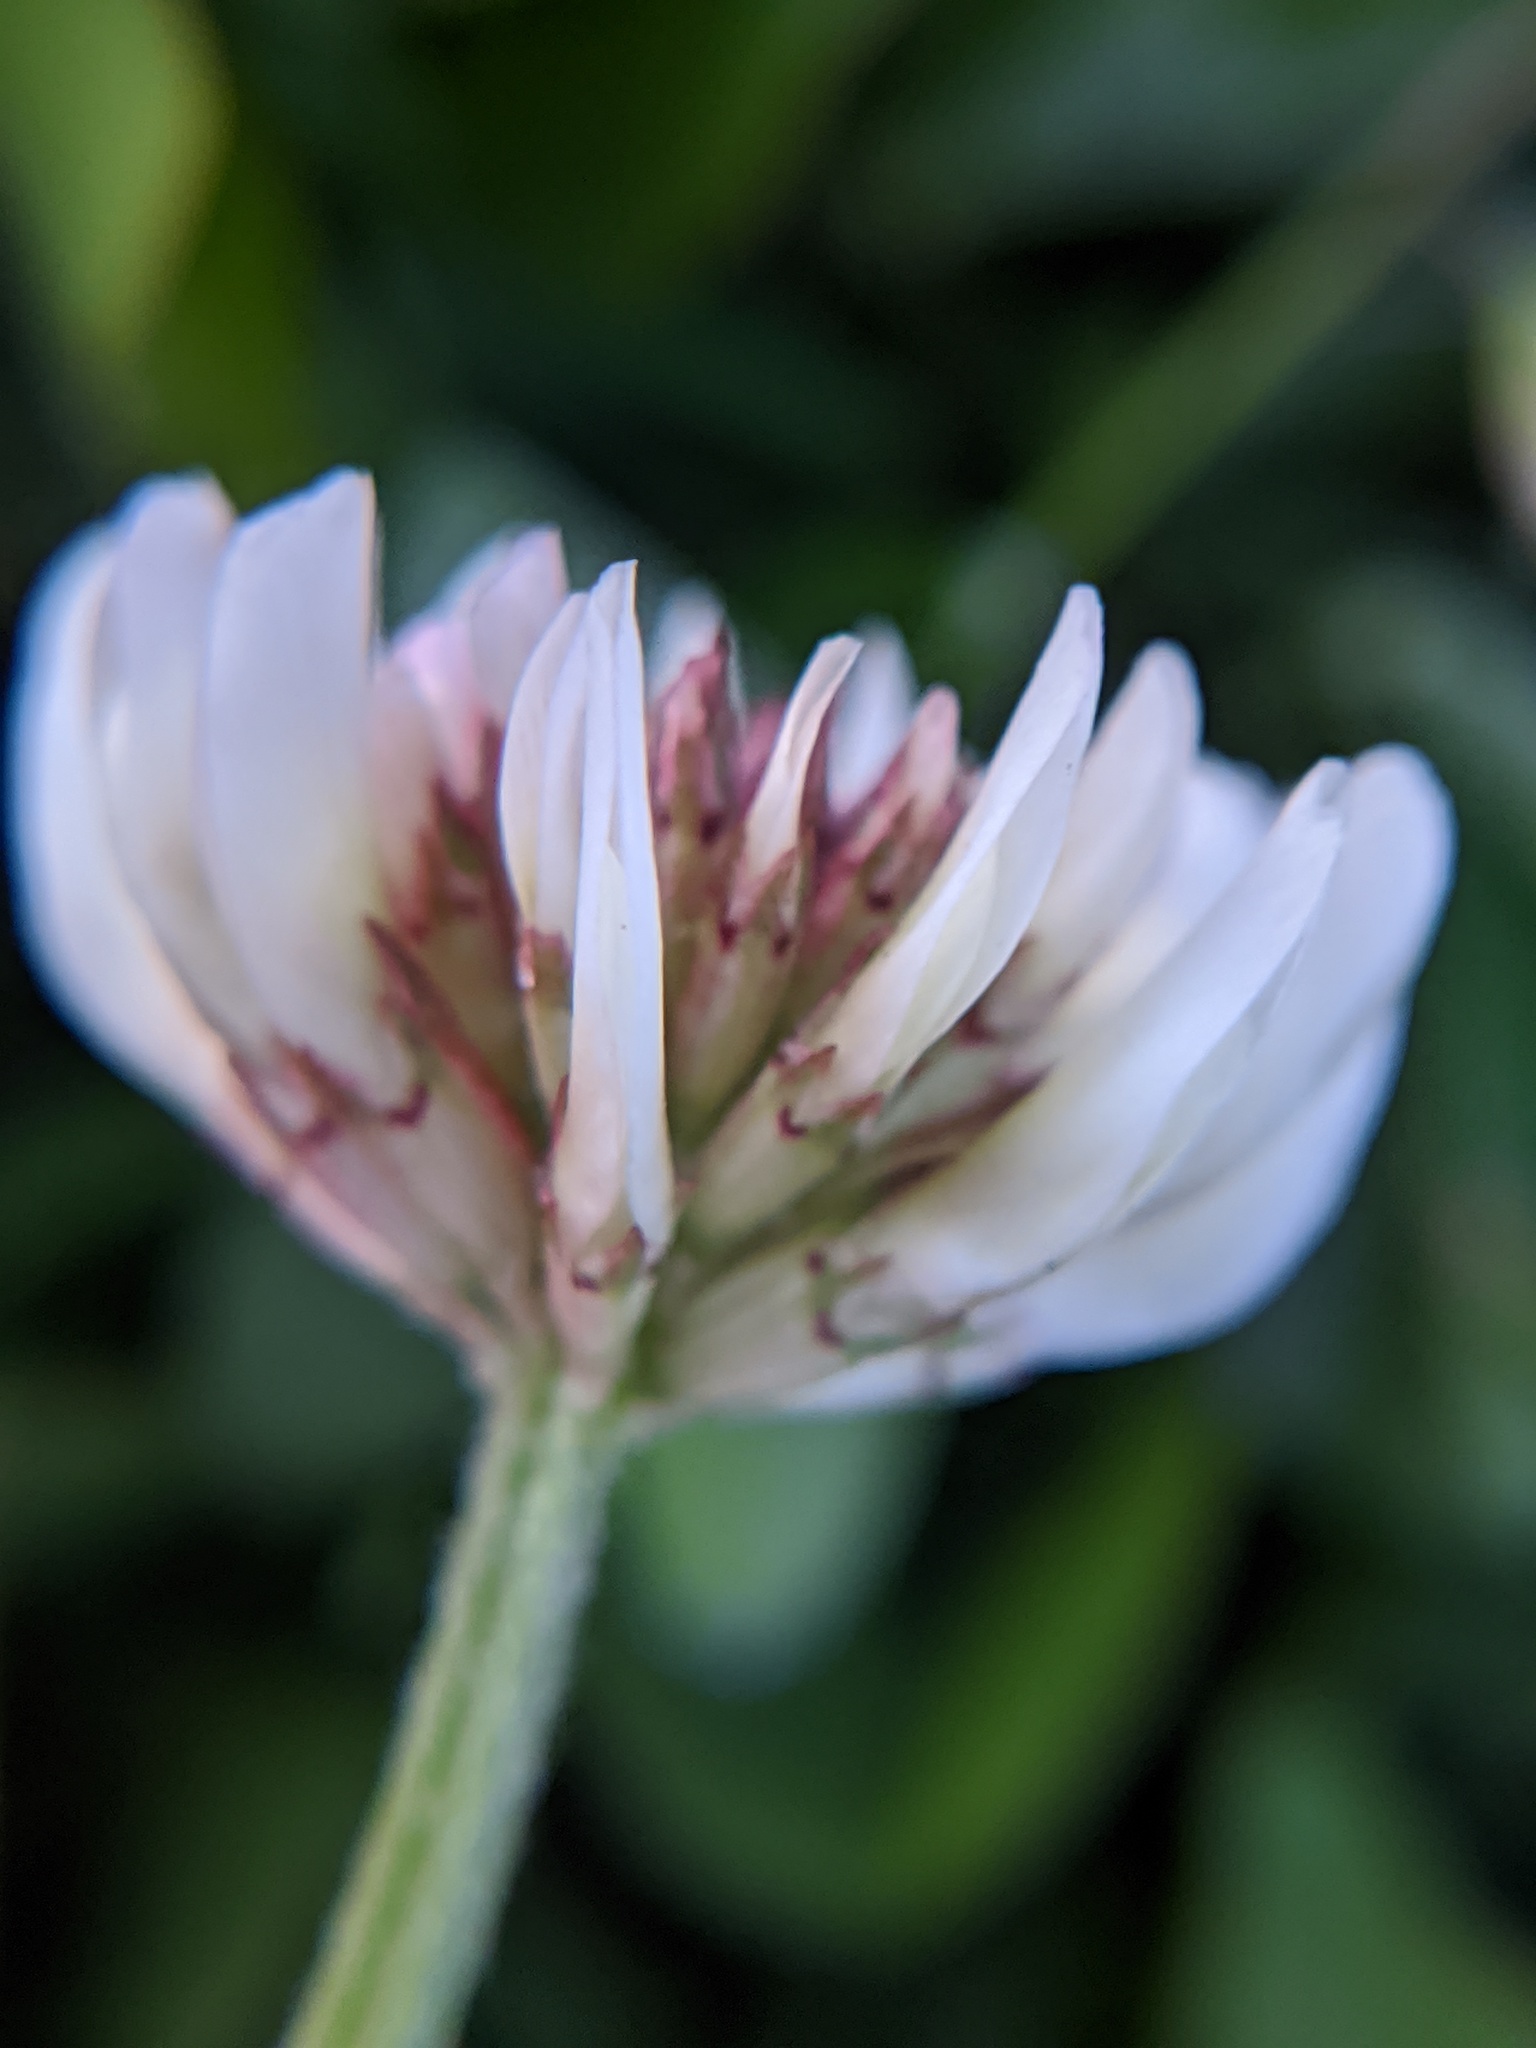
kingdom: Plantae
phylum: Tracheophyta
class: Magnoliopsida
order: Fabales
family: Fabaceae
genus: Trifolium
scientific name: Trifolium repens
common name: White clover
